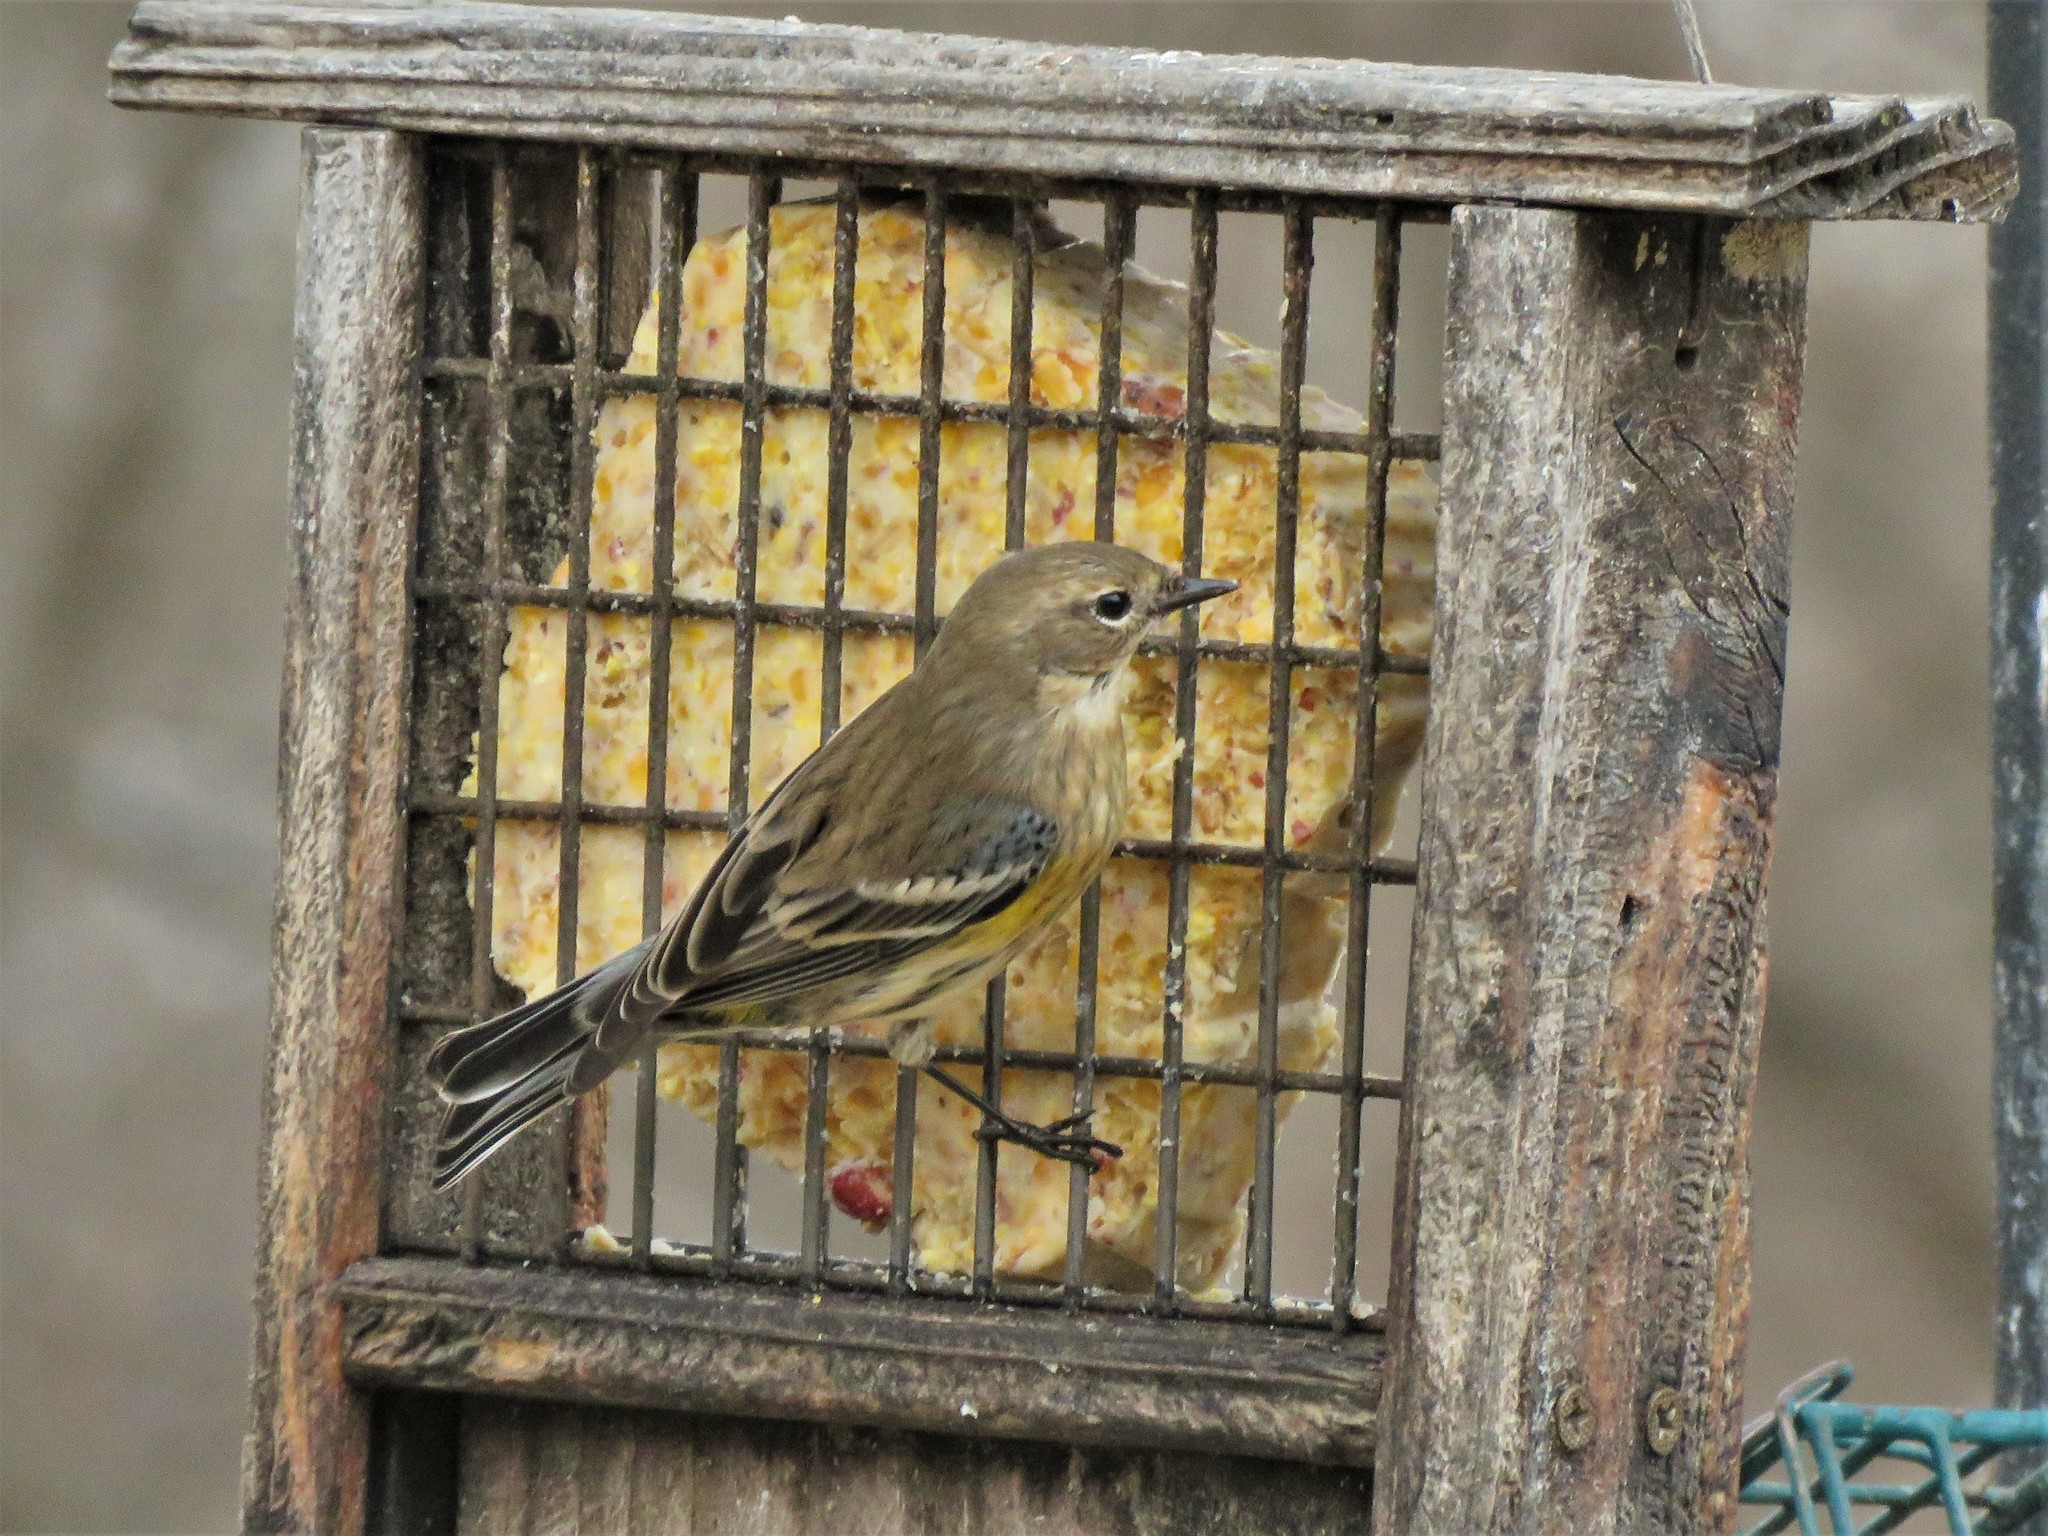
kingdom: Animalia
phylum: Chordata
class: Aves
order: Passeriformes
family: Parulidae
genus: Setophaga
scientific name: Setophaga coronata
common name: Myrtle warbler
